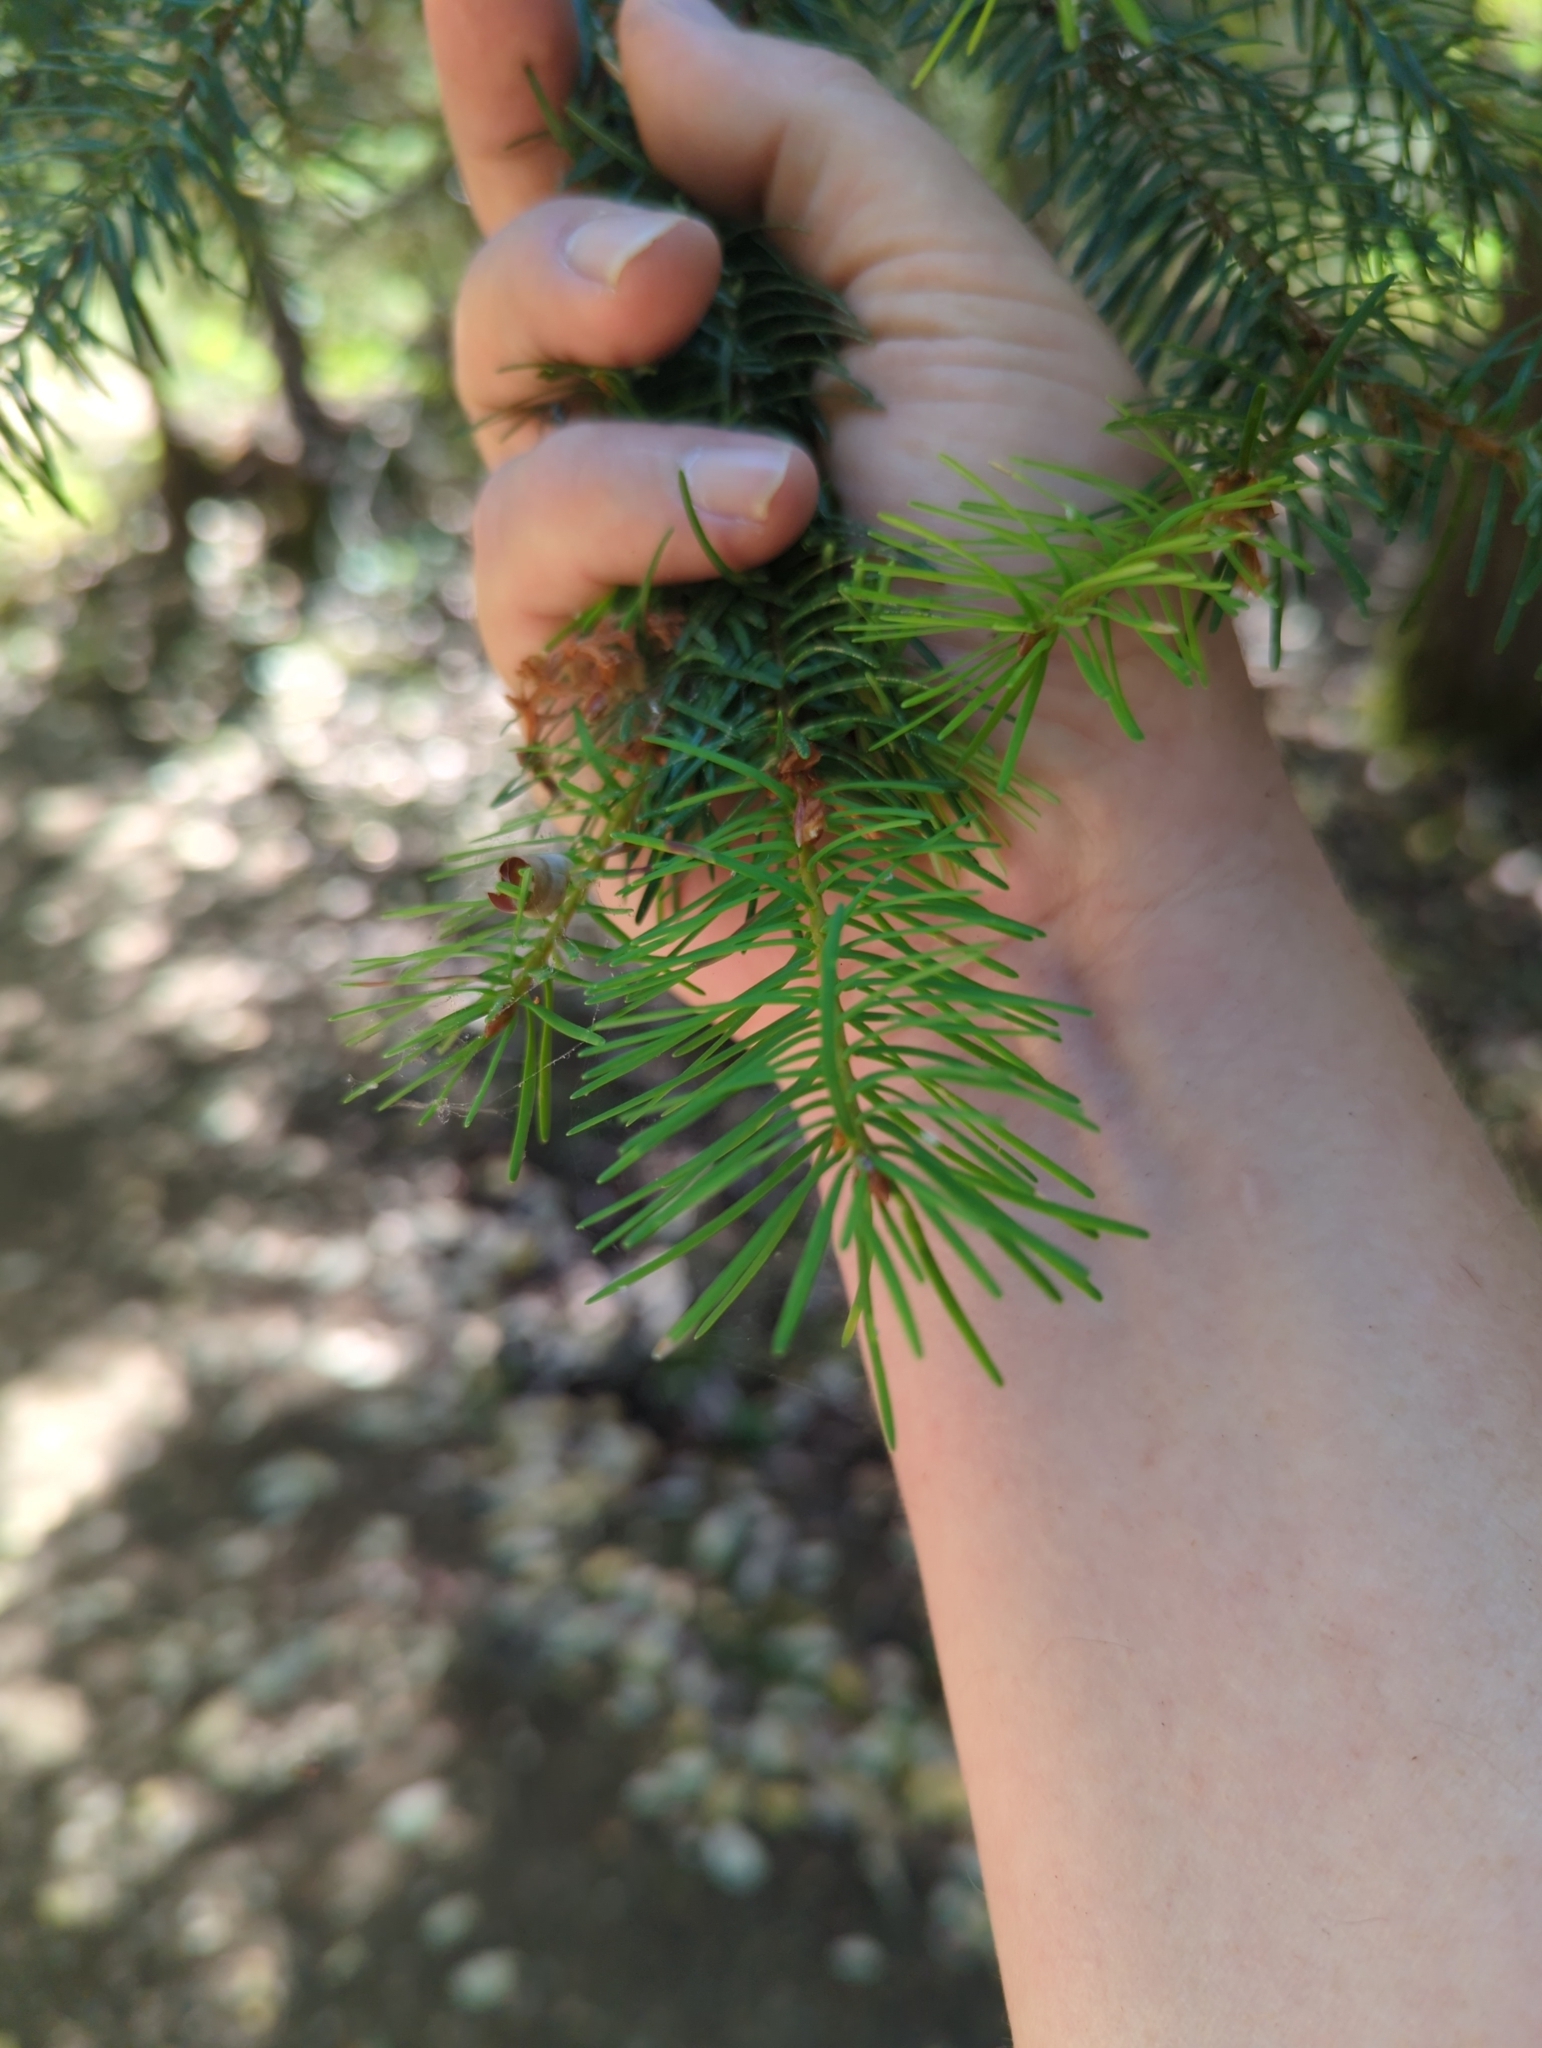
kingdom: Plantae
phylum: Tracheophyta
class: Pinopsida
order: Pinales
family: Pinaceae
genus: Pseudotsuga
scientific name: Pseudotsuga menziesii
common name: Douglas fir
